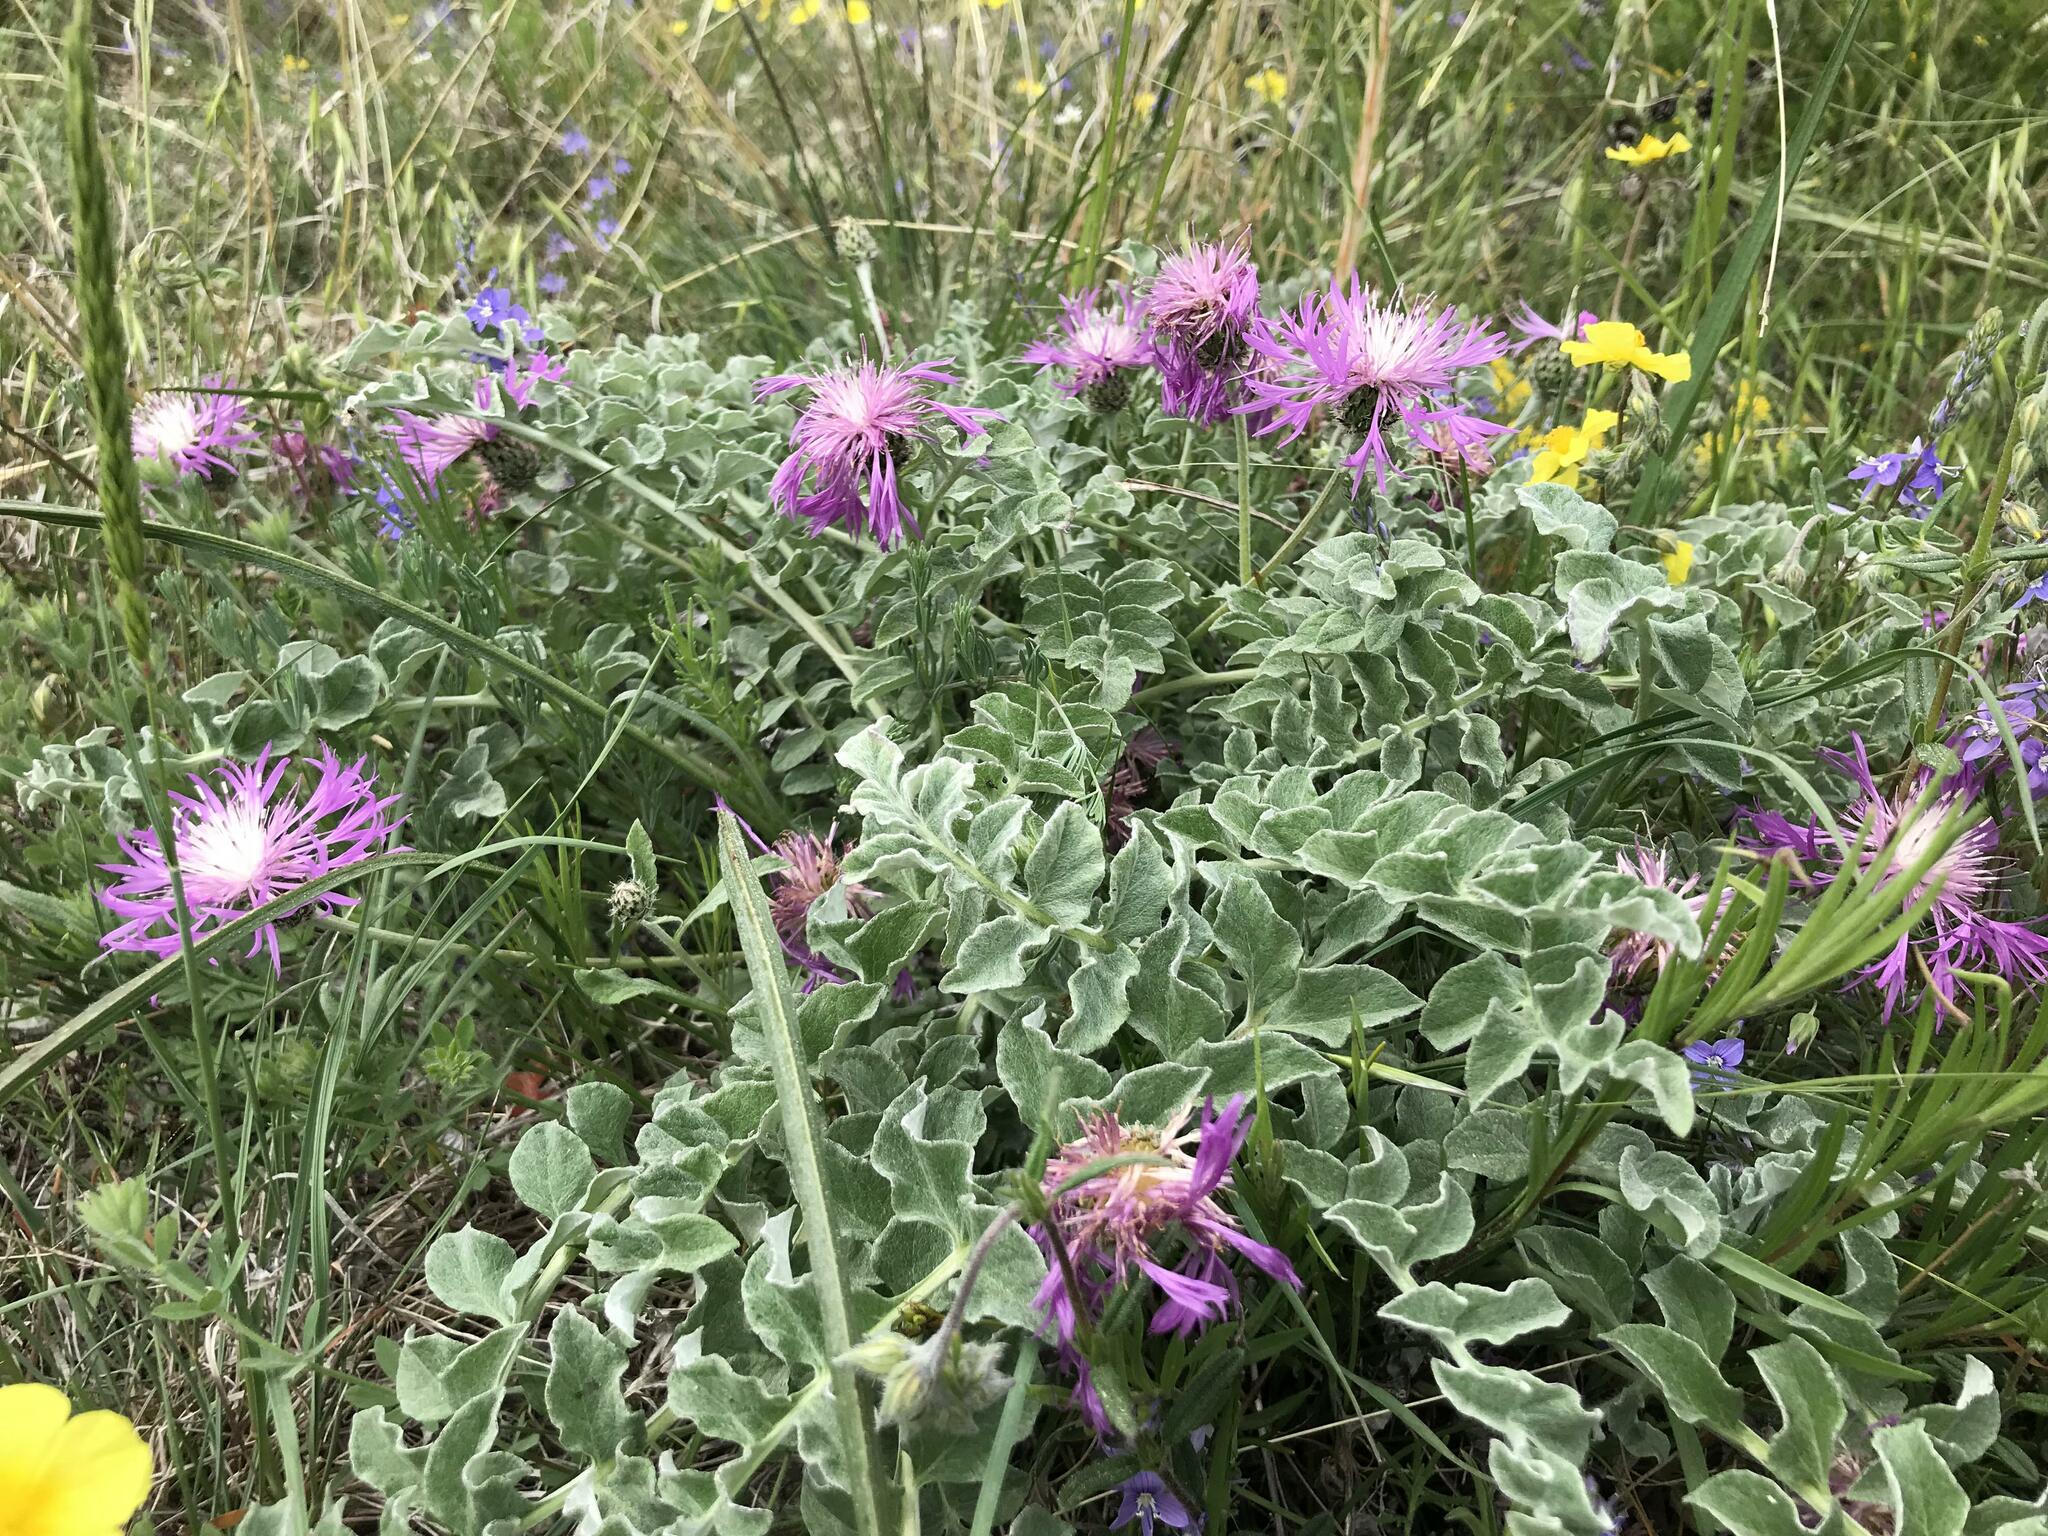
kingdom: Plantae
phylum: Tracheophyta
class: Magnoliopsida
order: Asterales
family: Asteraceae
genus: Psephellus
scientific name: Psephellus declinatus
